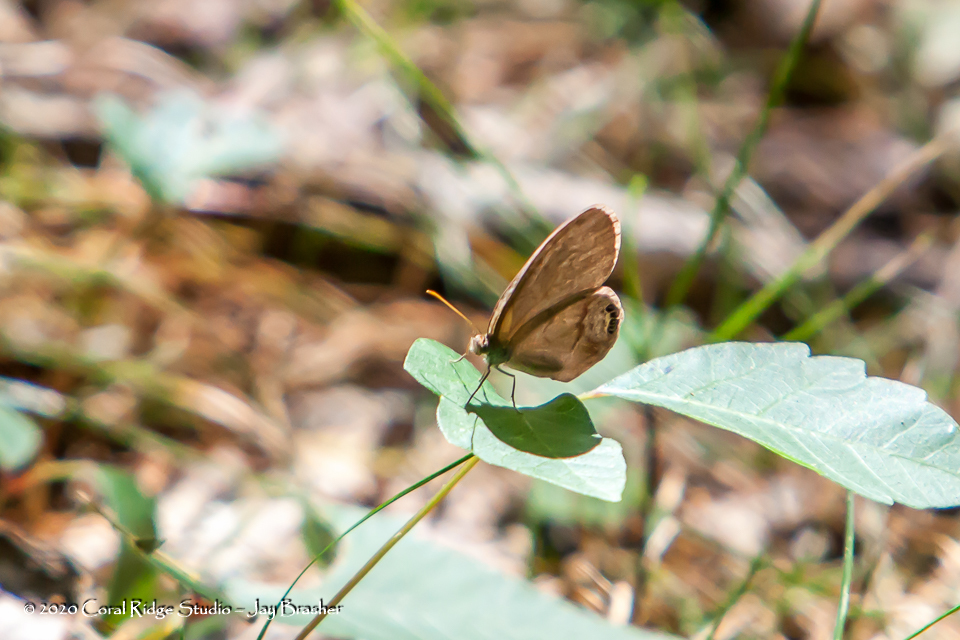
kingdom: Animalia
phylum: Arthropoda
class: Insecta
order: Lepidoptera
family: Nymphalidae
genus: Euptychia
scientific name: Euptychia cornelius
